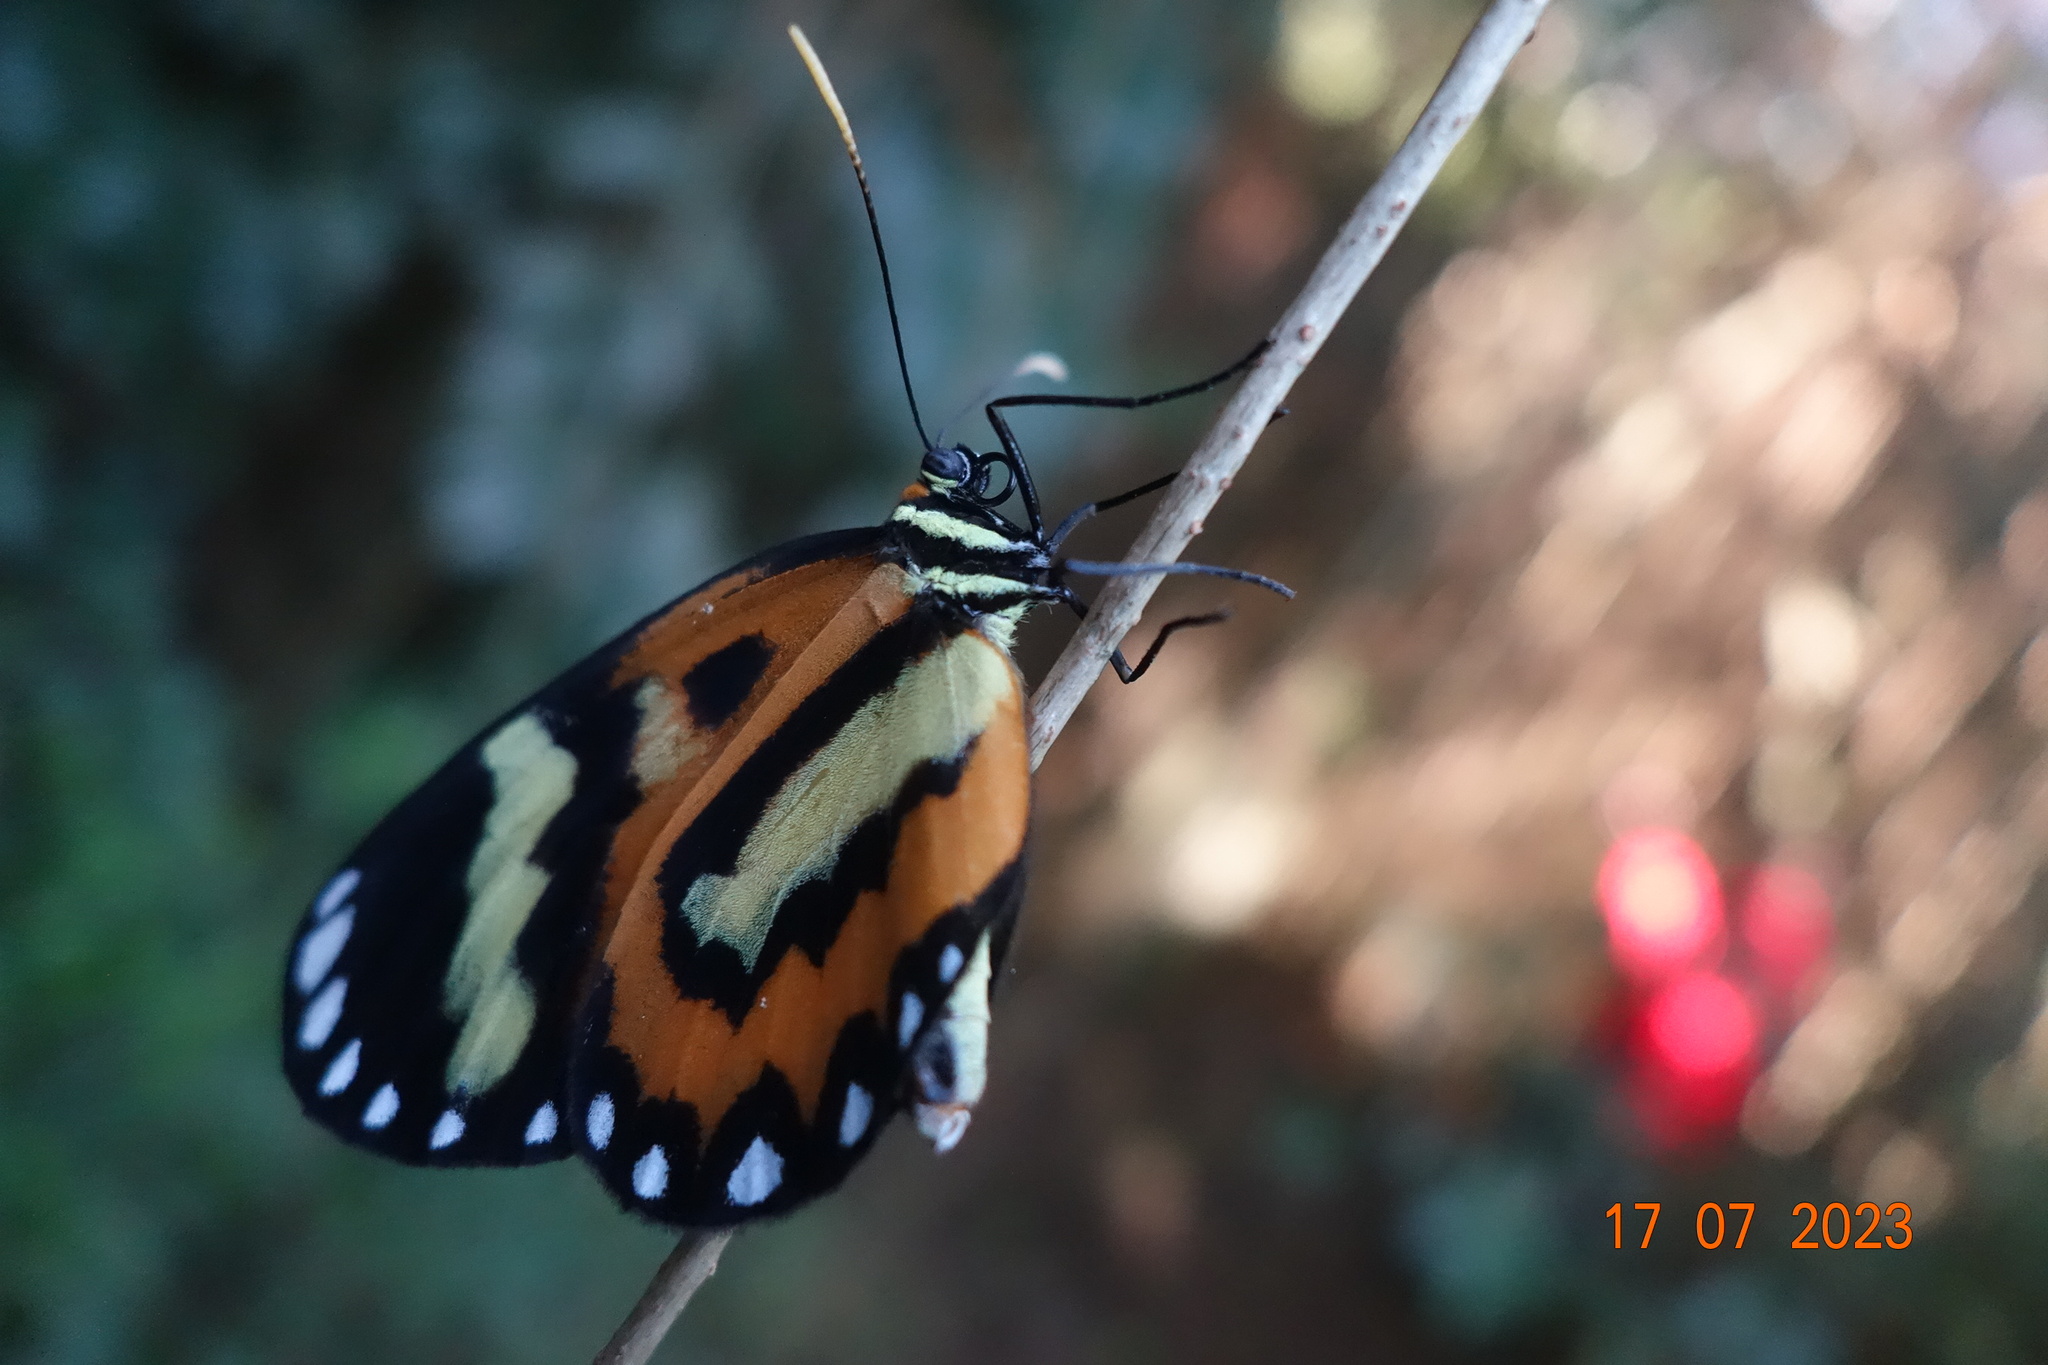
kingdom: Animalia
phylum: Arthropoda
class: Insecta
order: Lepidoptera
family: Nymphalidae
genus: Placidina
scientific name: Placidina euryanassa
